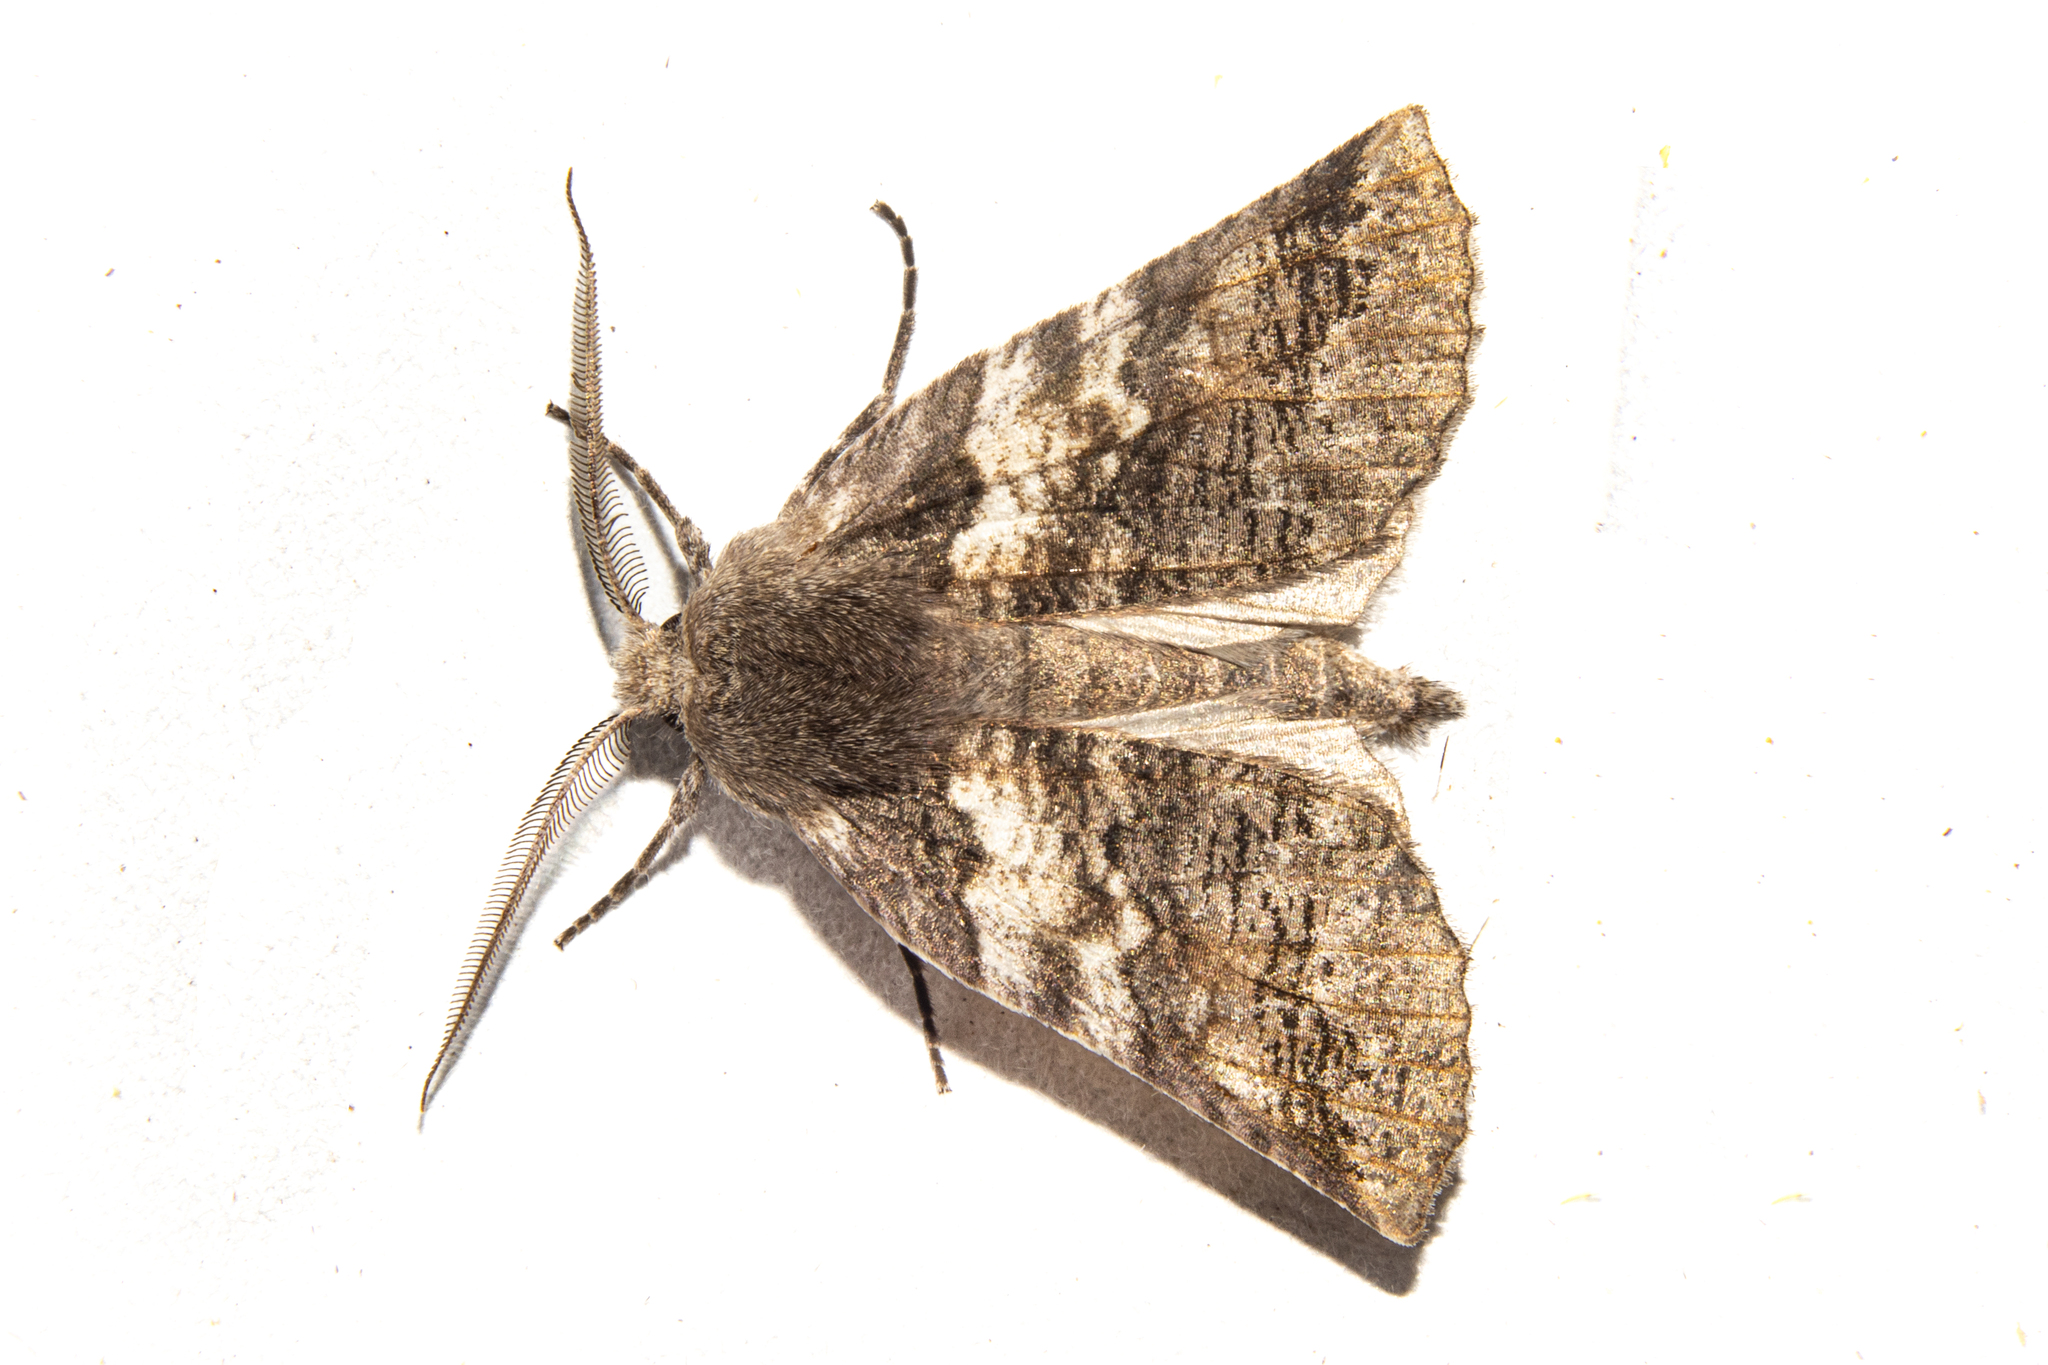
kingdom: Animalia
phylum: Arthropoda
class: Insecta
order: Lepidoptera
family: Geometridae
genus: Declana
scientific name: Declana
